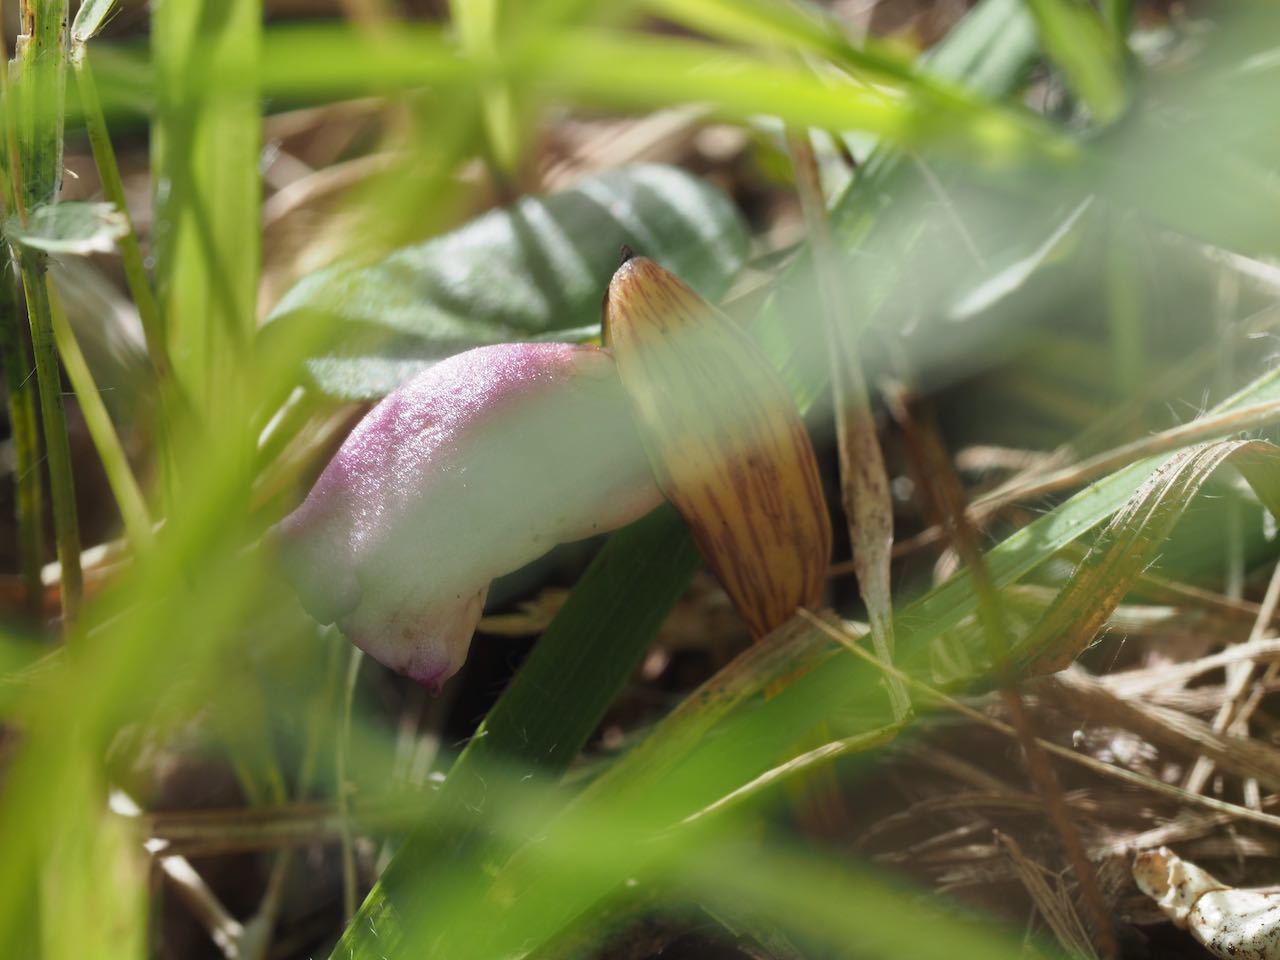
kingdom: Plantae
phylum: Tracheophyta
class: Magnoliopsida
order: Lamiales
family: Orobanchaceae
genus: Aeginetia
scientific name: Aeginetia indica
